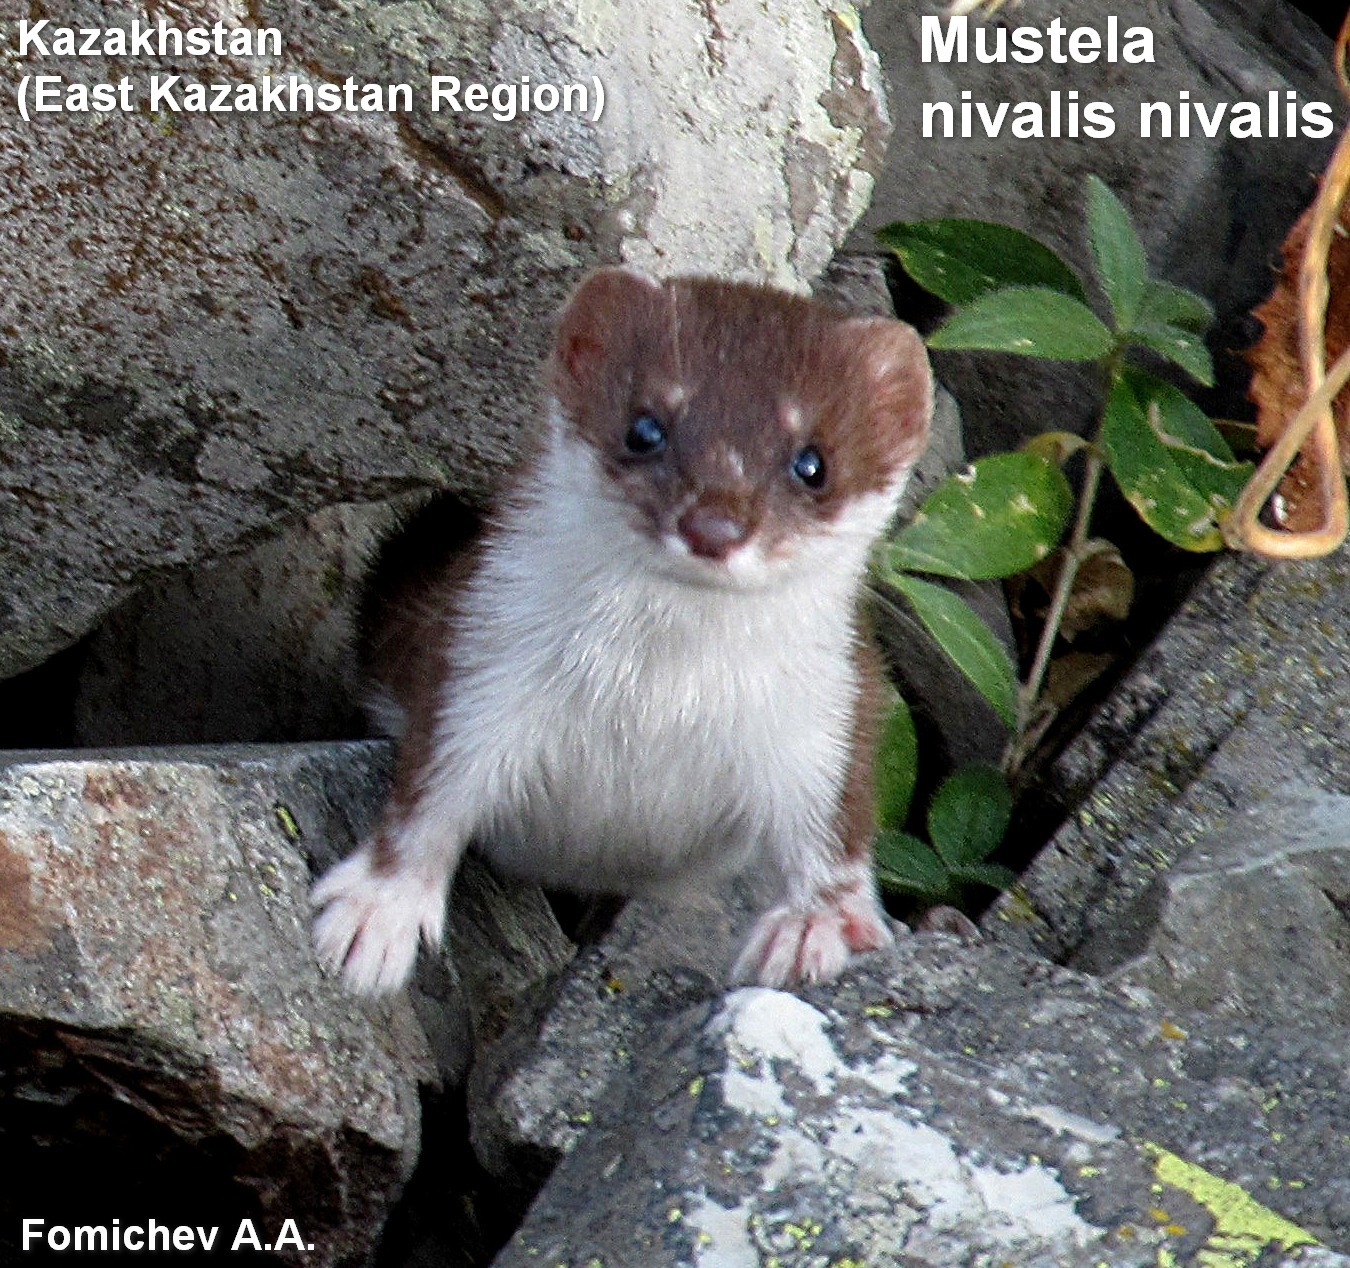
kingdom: Animalia
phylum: Chordata
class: Mammalia
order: Carnivora
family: Mustelidae
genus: Mustela
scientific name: Mustela nivalis
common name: Least weasel
